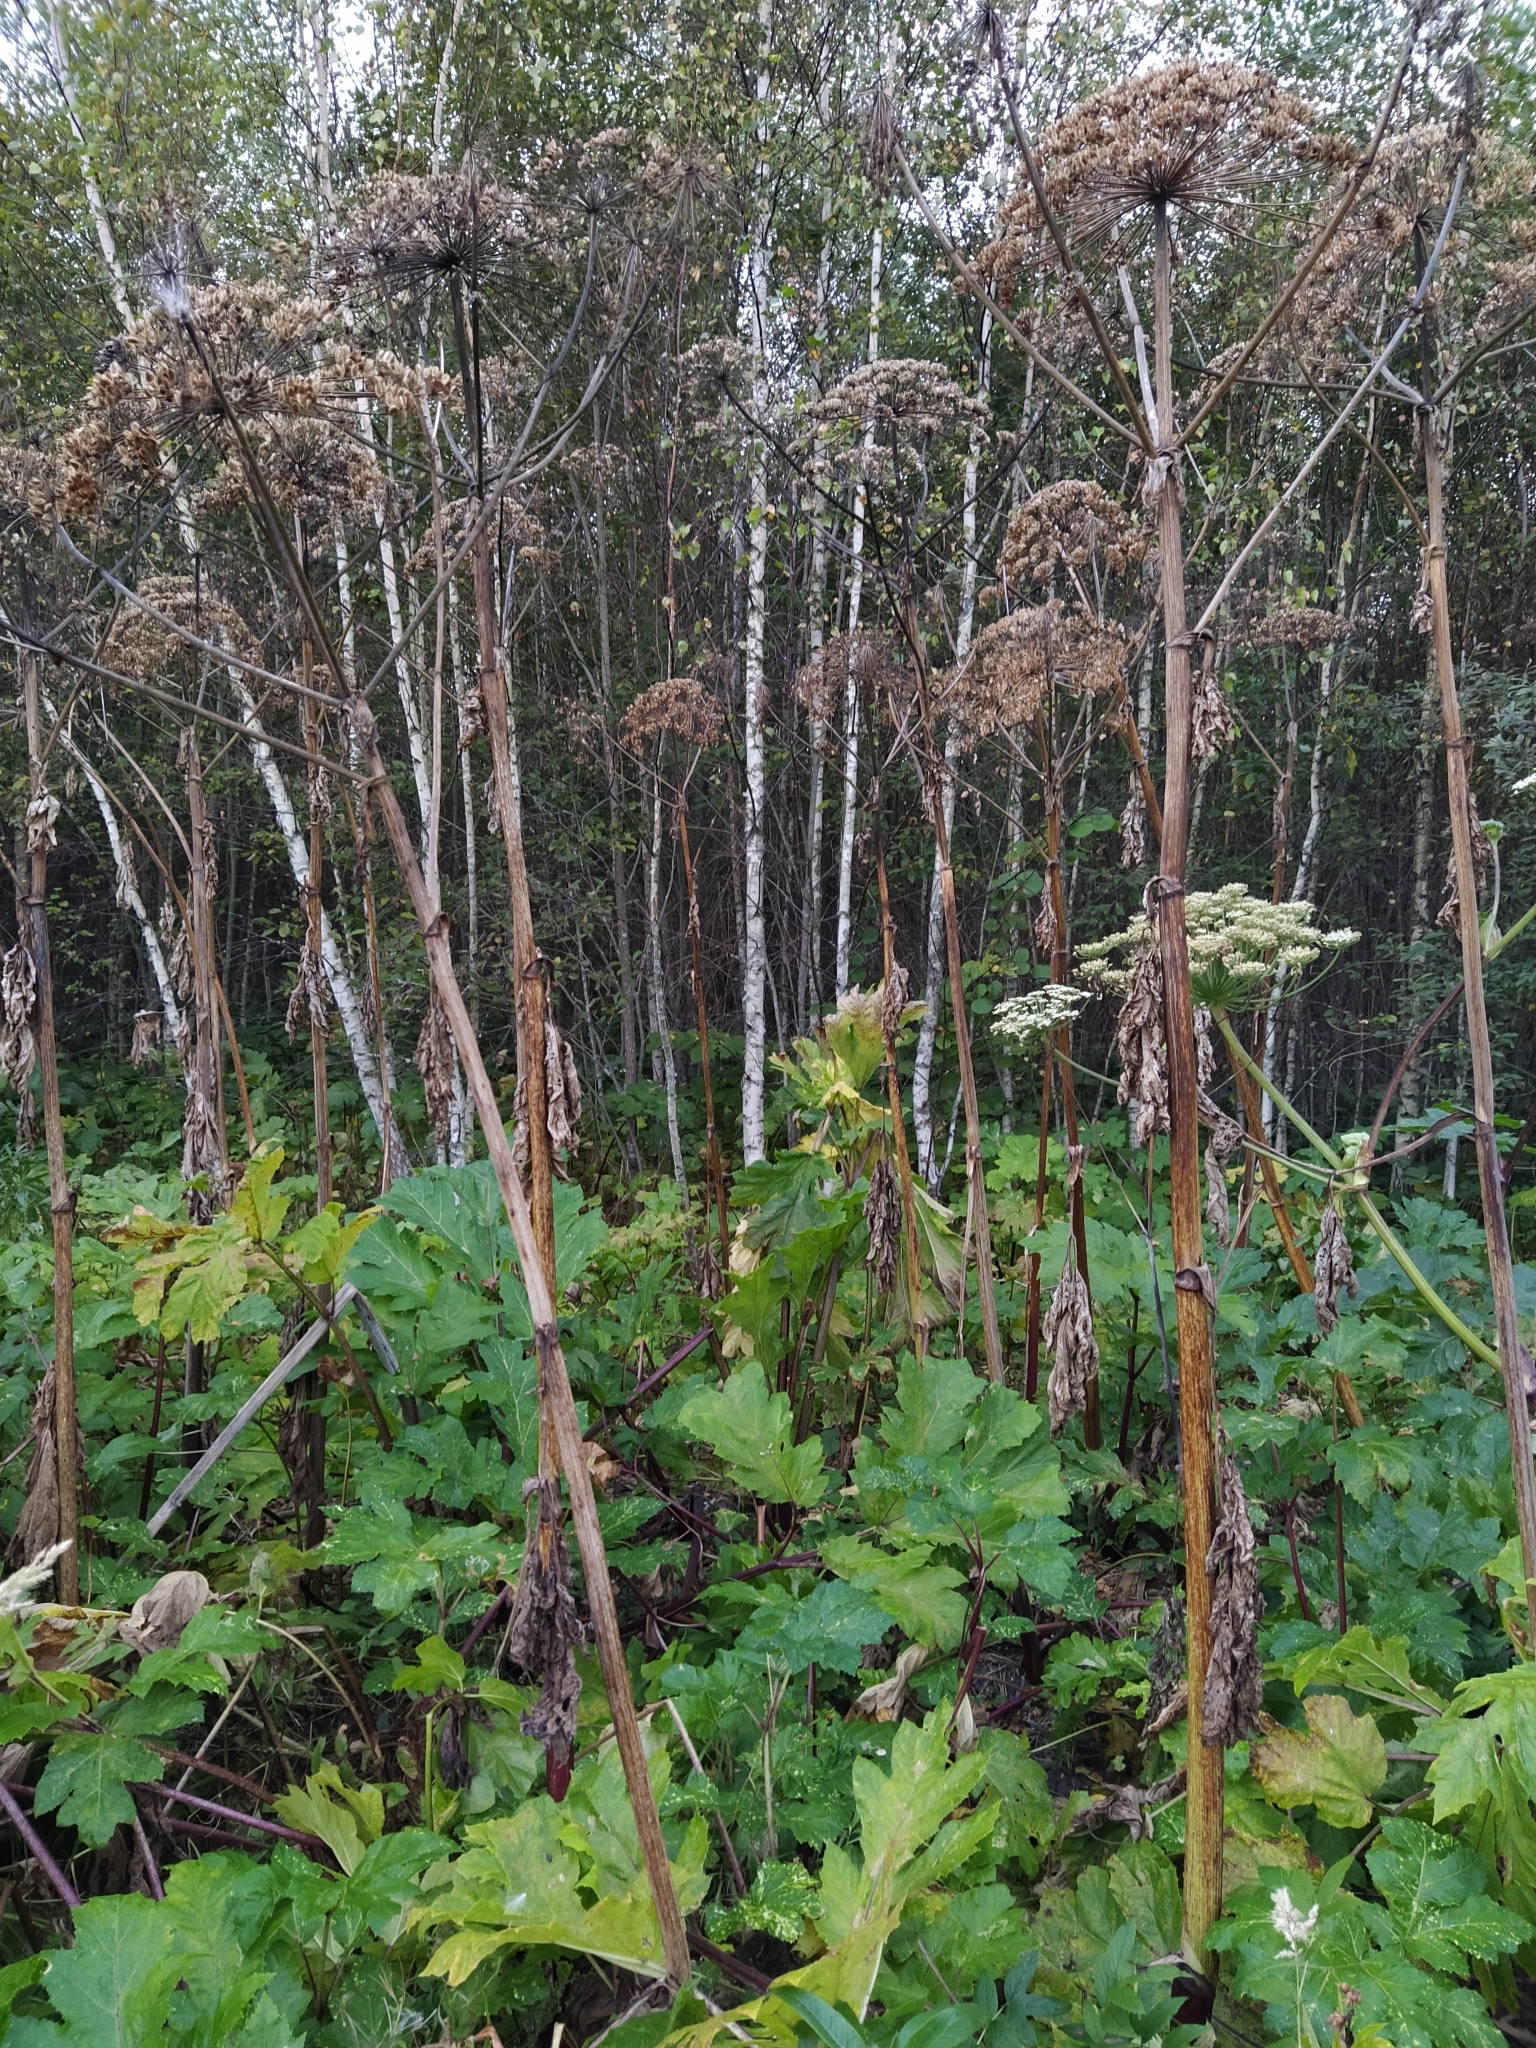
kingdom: Plantae
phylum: Tracheophyta
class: Magnoliopsida
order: Apiales
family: Apiaceae
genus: Heracleum
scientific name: Heracleum sosnowskyi
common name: Sosnowsky's hogweed
